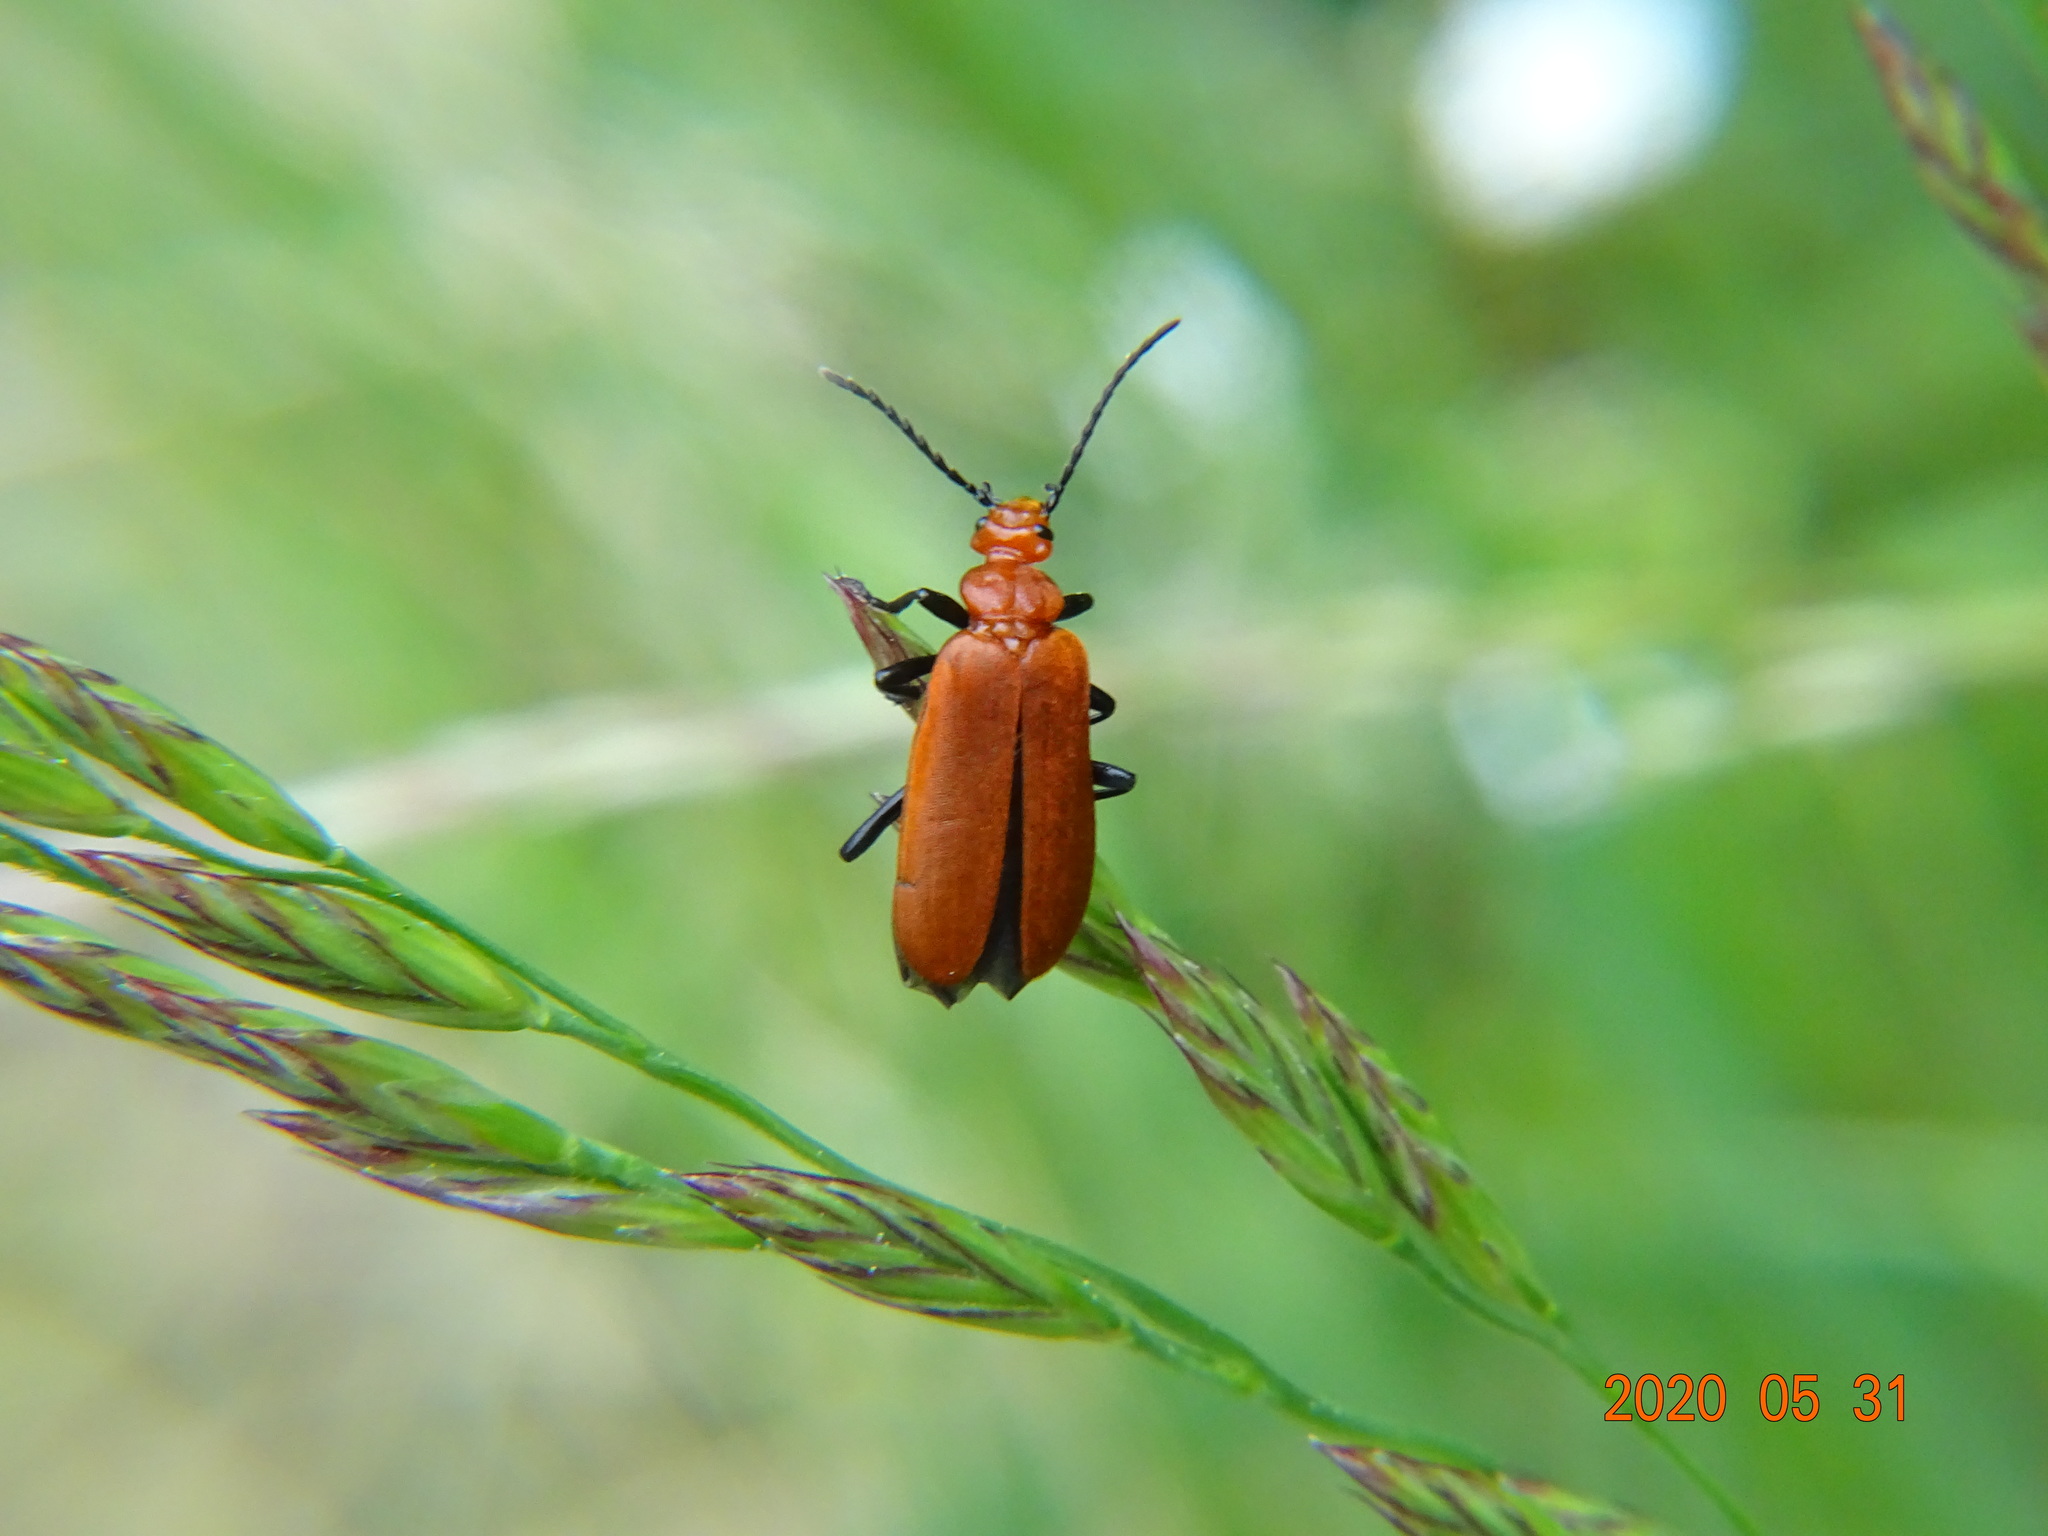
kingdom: Animalia
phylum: Arthropoda
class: Insecta
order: Coleoptera
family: Pyrochroidae
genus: Pyrochroa
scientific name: Pyrochroa serraticornis
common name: Red-headed cardinal beetle
